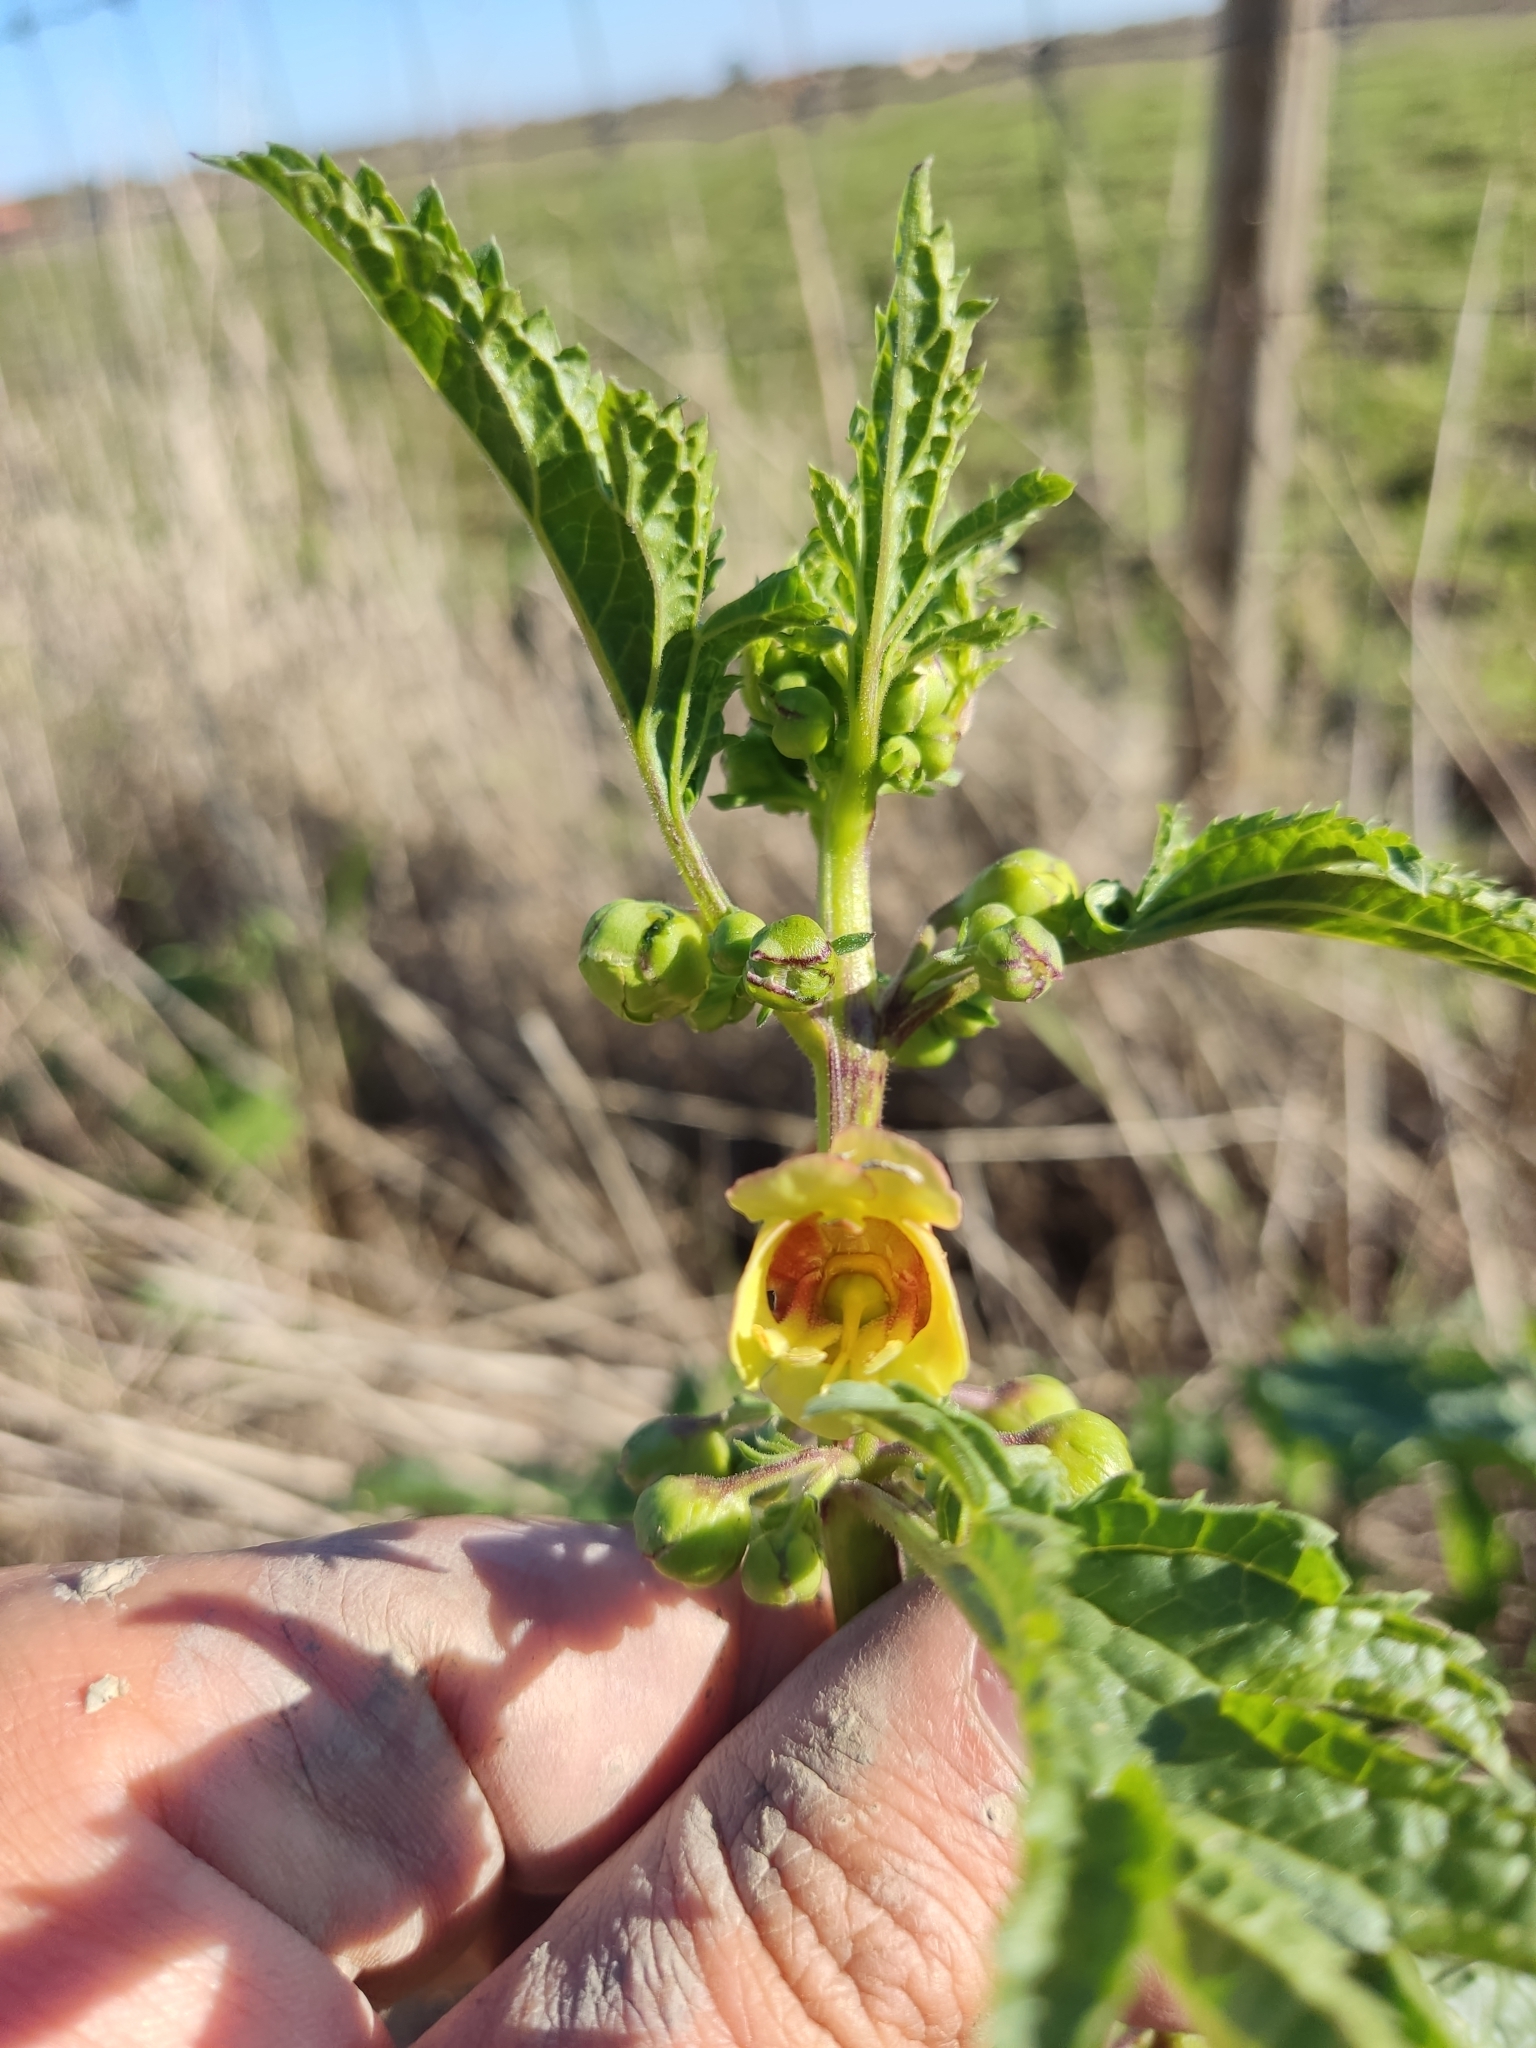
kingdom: Plantae
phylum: Tracheophyta
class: Magnoliopsida
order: Lamiales
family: Scrophulariaceae
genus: Scrophularia
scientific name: Scrophularia sambucifolia
